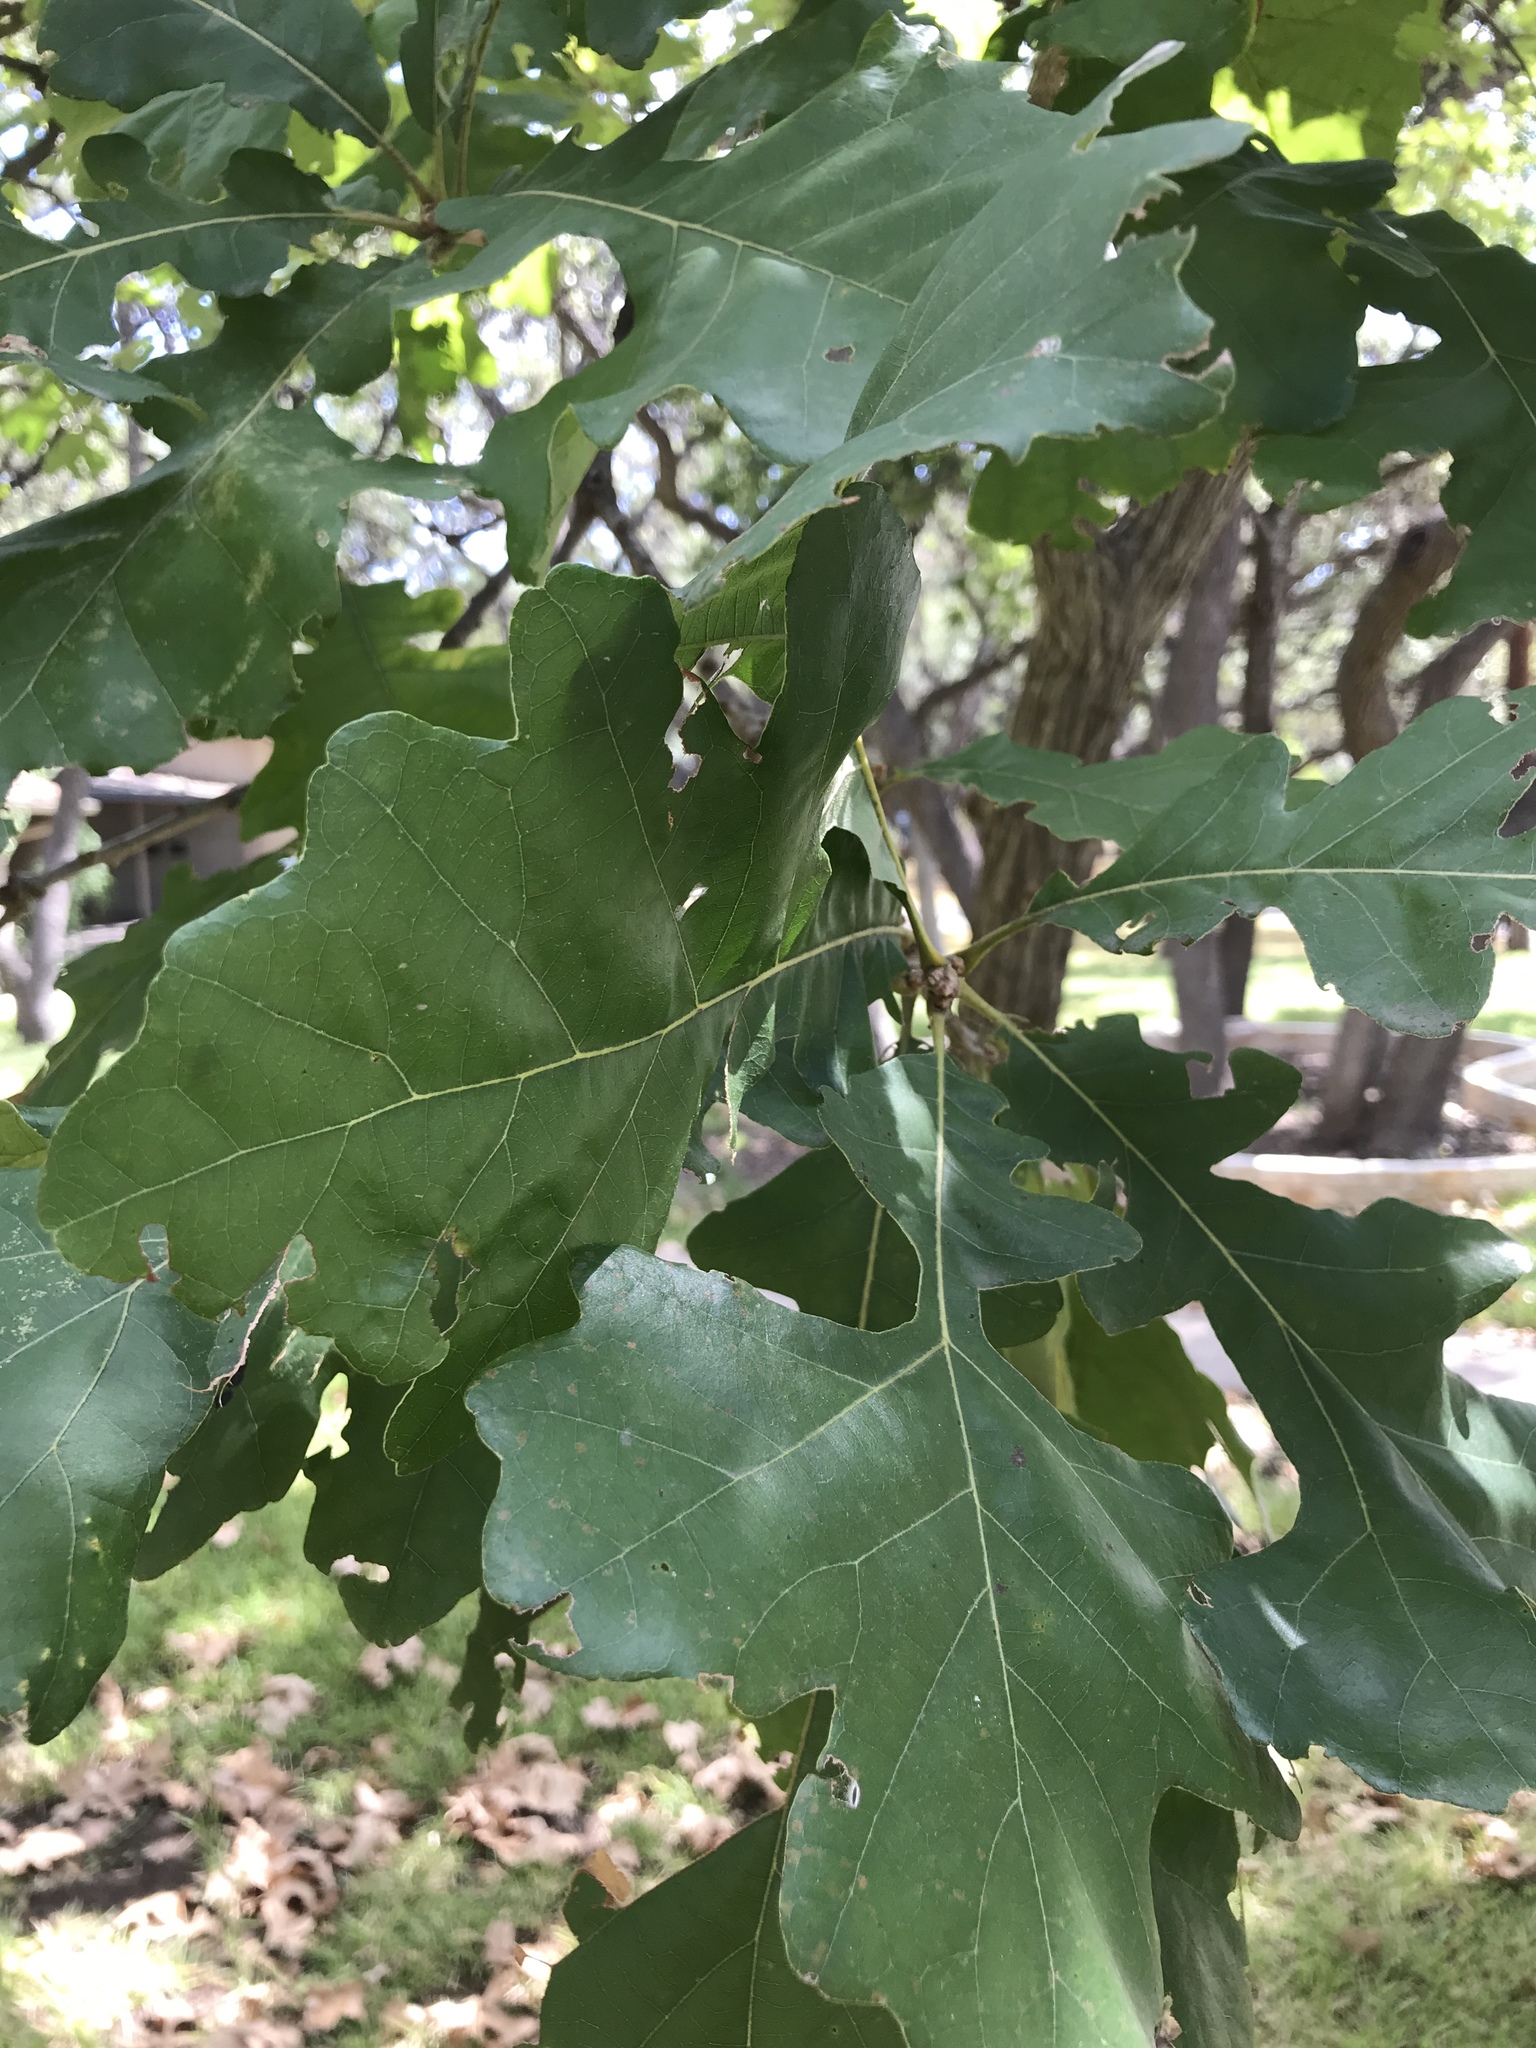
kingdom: Plantae
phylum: Tracheophyta
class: Magnoliopsida
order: Fagales
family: Fagaceae
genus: Quercus
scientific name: Quercus macrocarpa
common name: Bur oak
